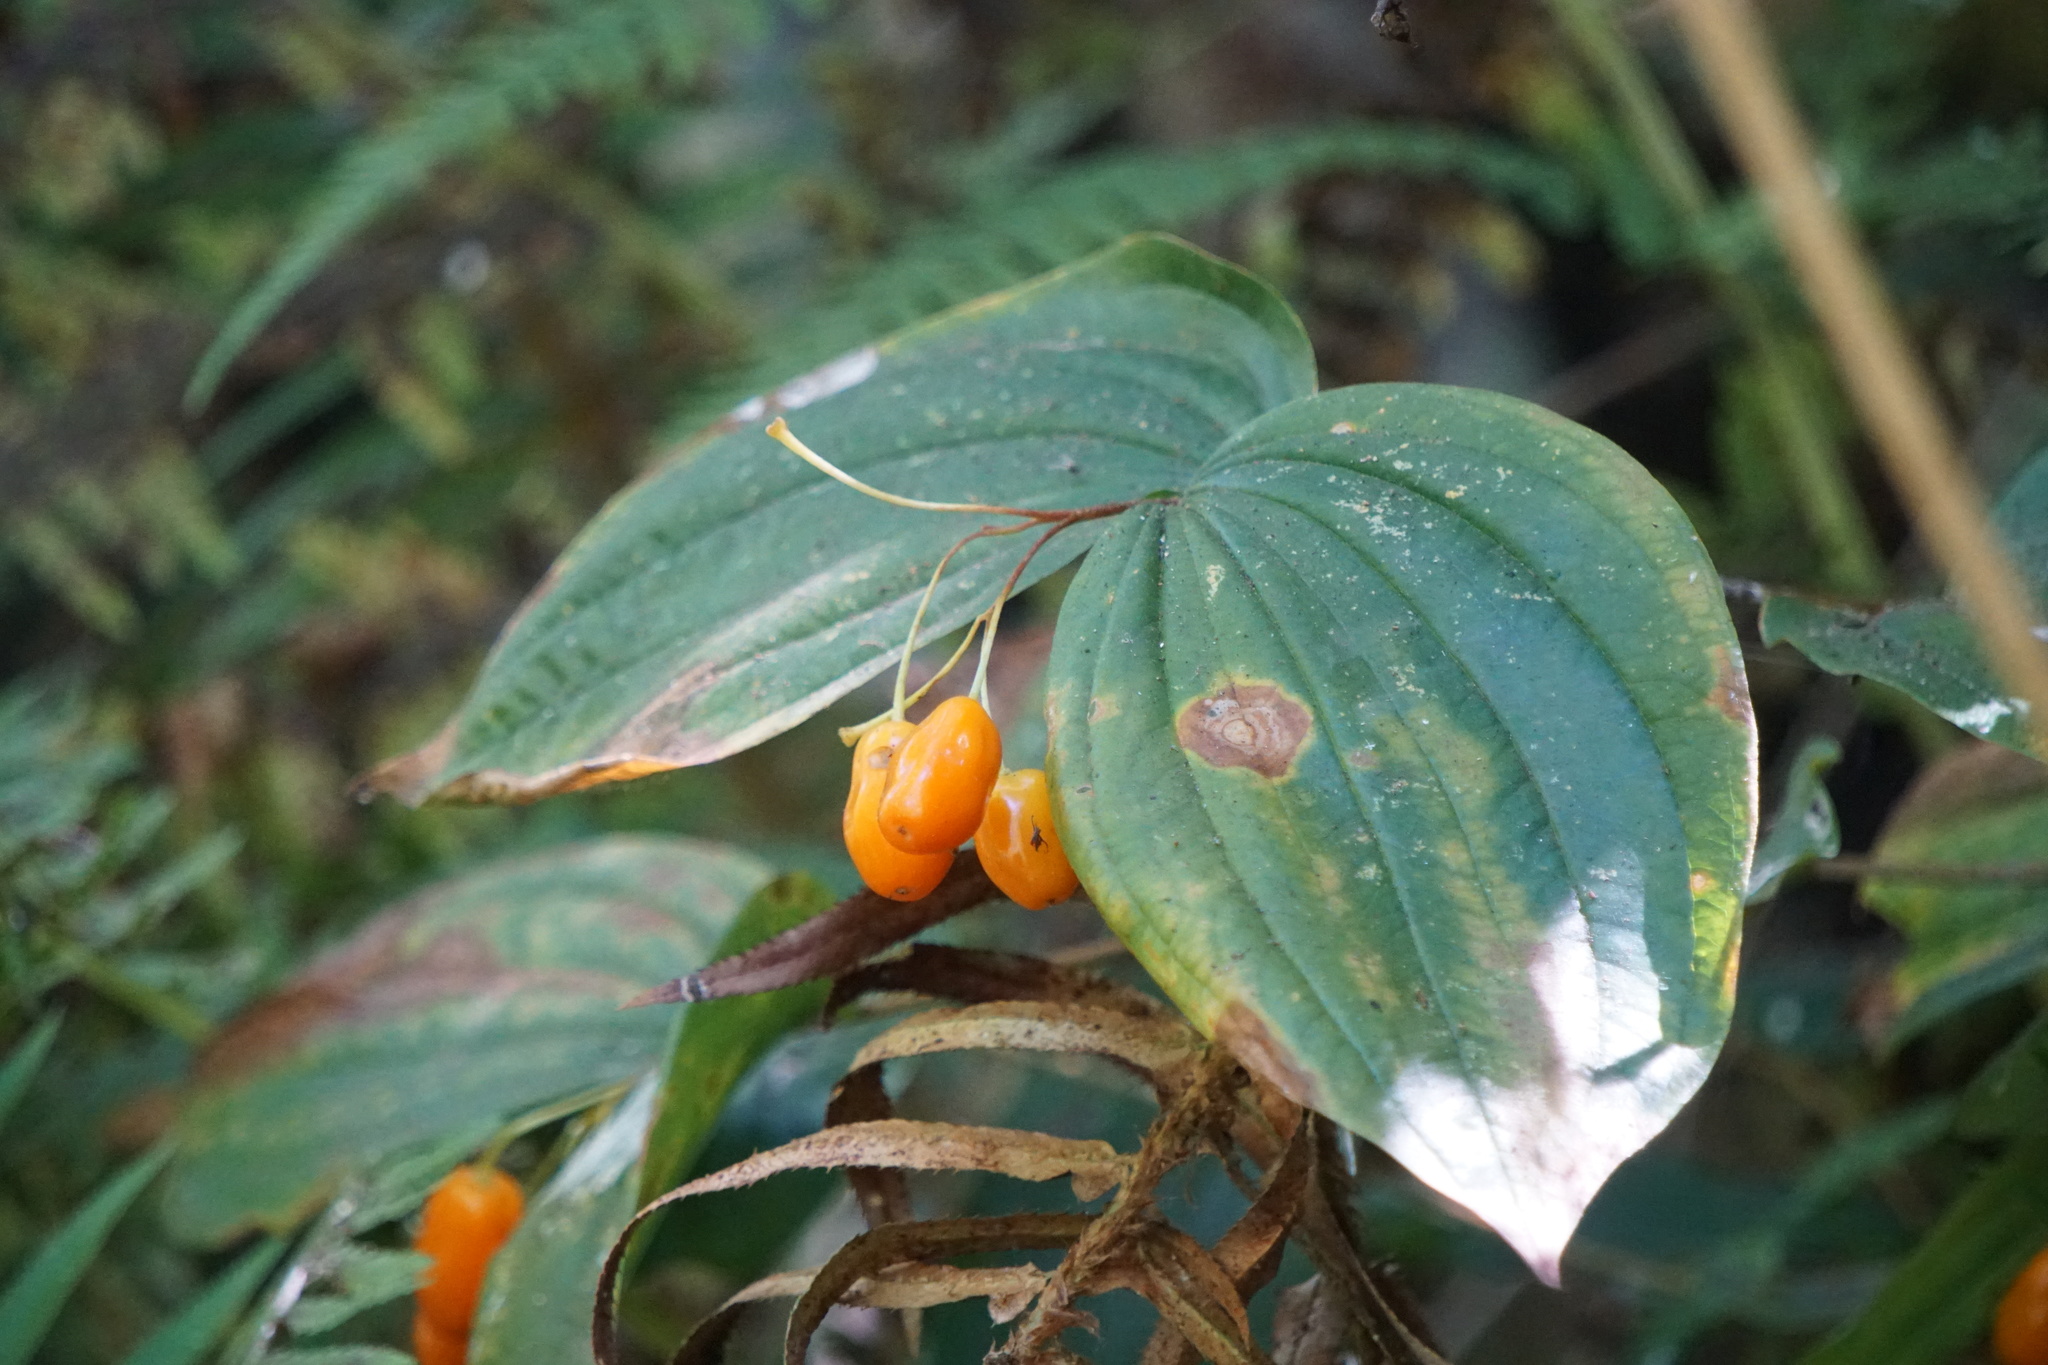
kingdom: Plantae
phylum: Tracheophyta
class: Liliopsida
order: Liliales
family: Liliaceae
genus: Prosartes
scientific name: Prosartes smithii
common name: Fairy-lantern
